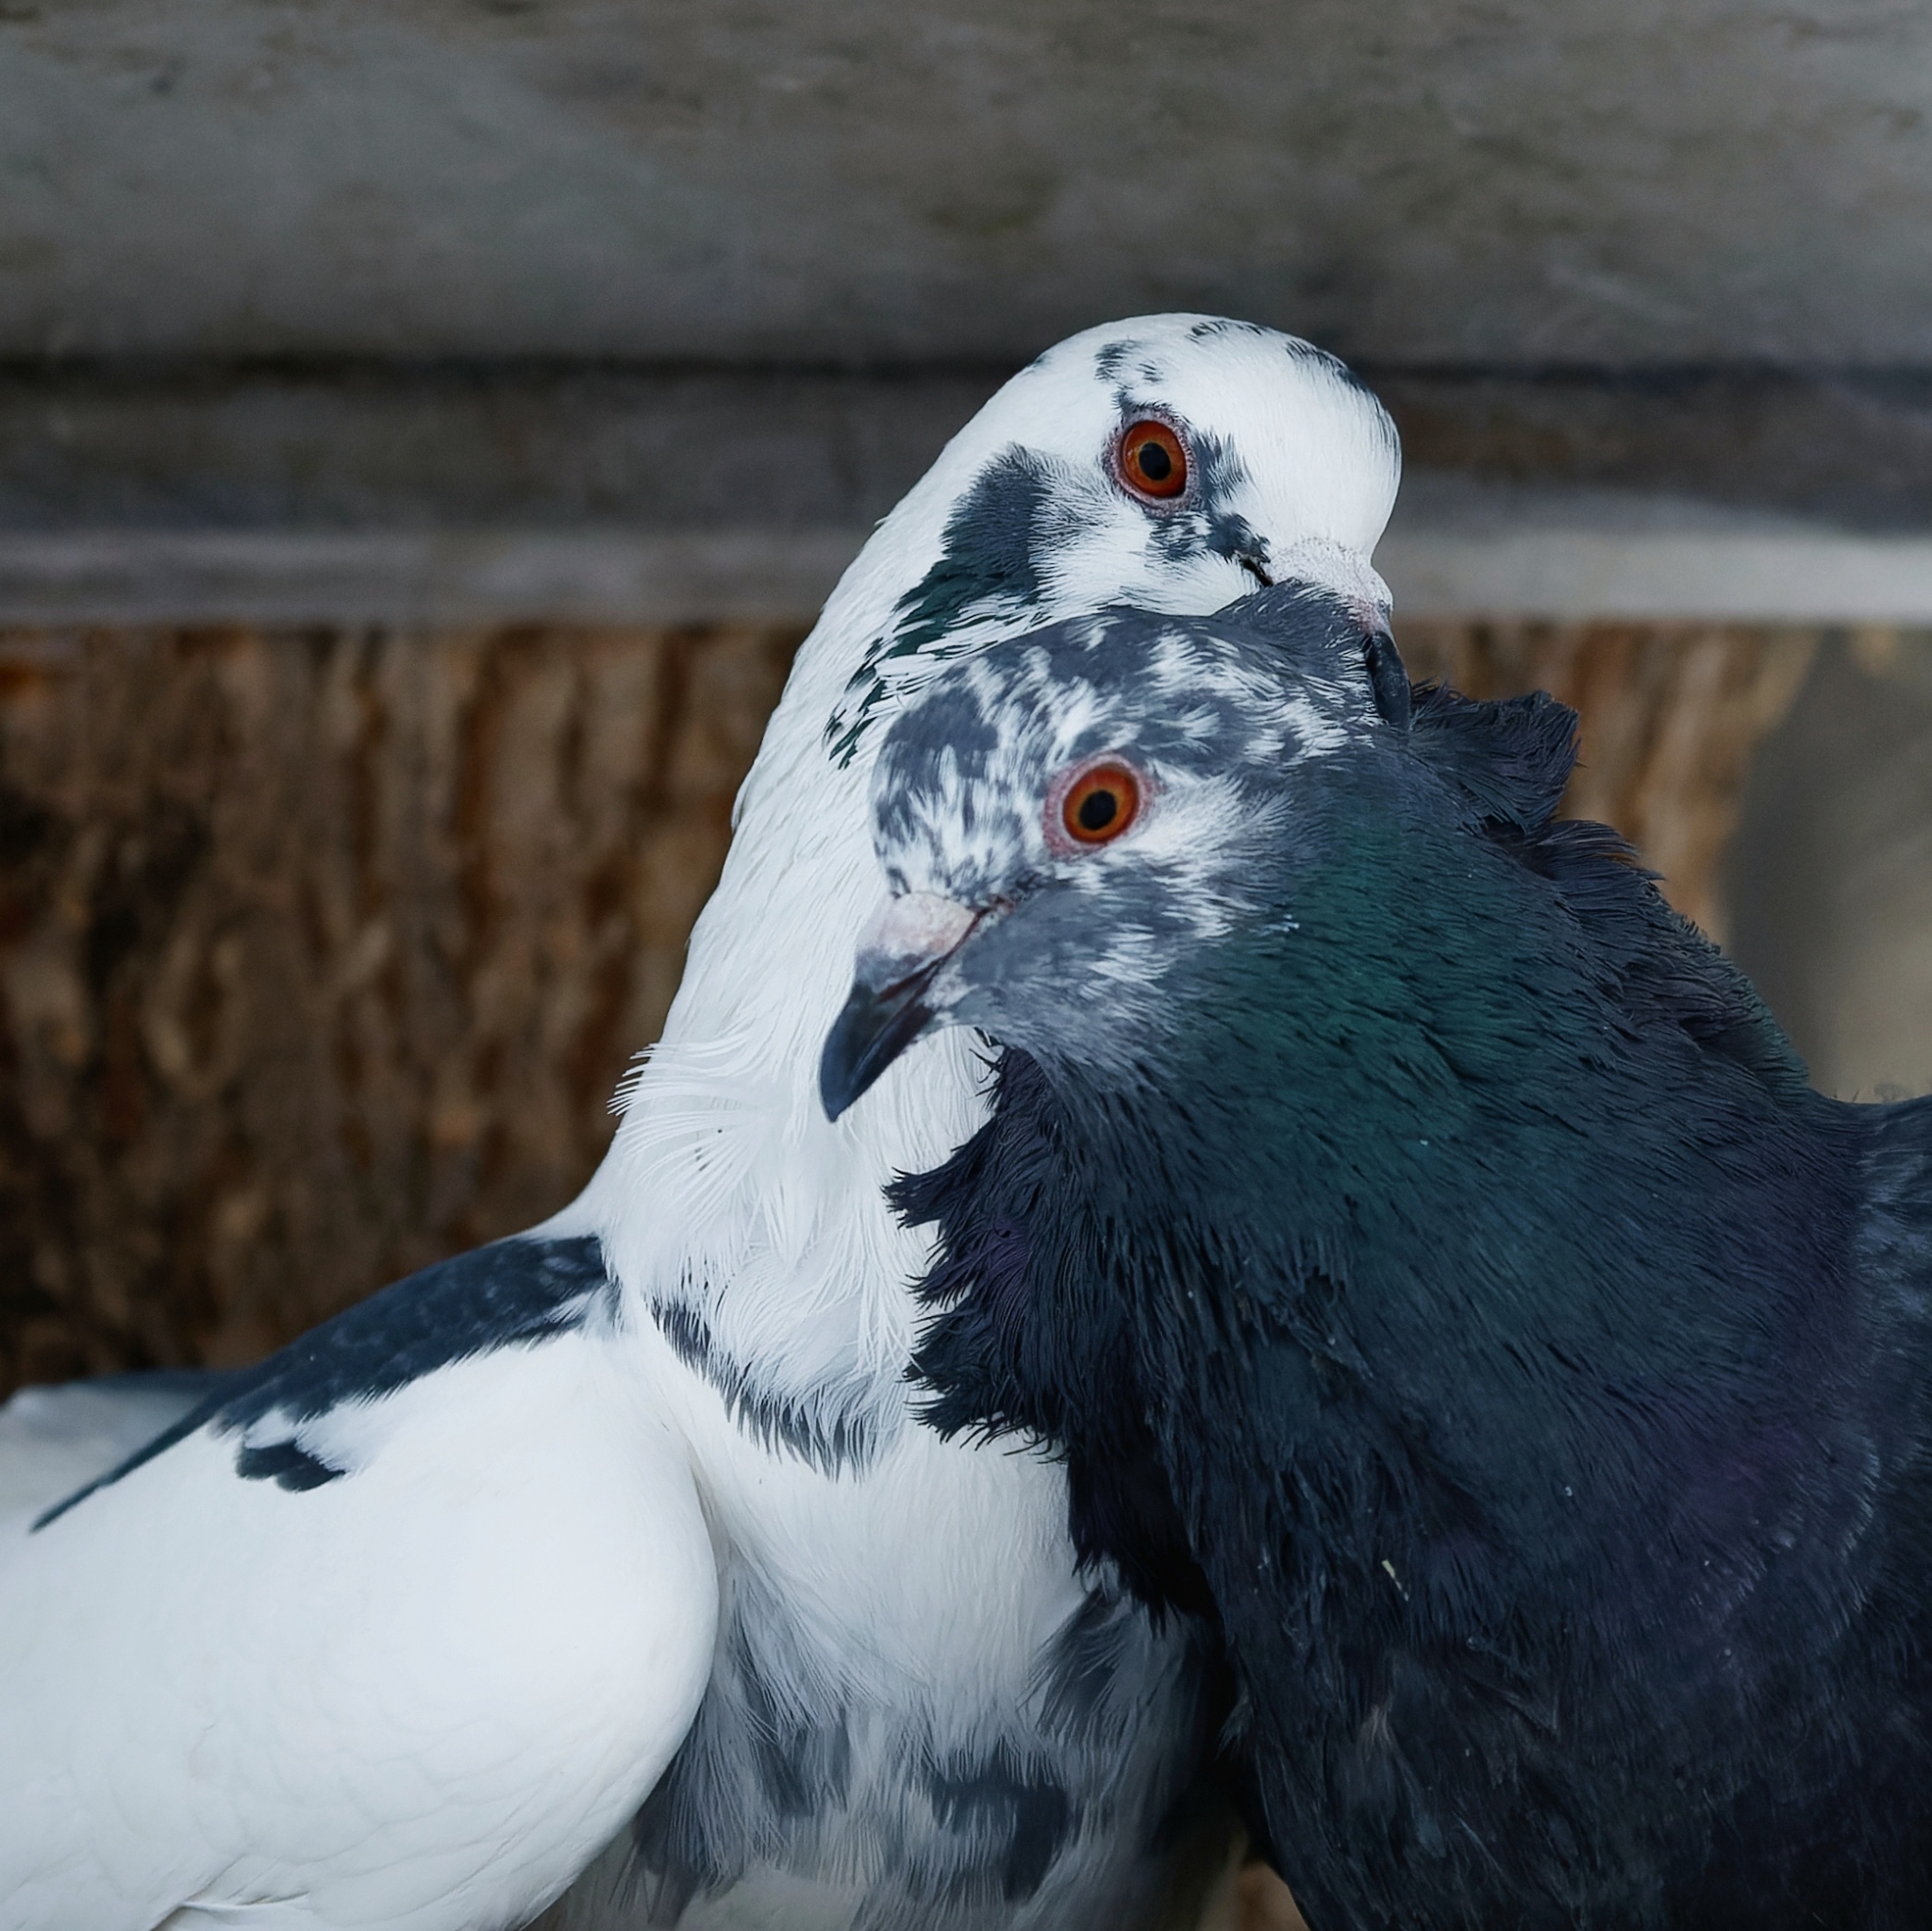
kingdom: Animalia
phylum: Chordata
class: Aves
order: Columbiformes
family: Columbidae
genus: Columba
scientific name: Columba livia
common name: Rock pigeon
